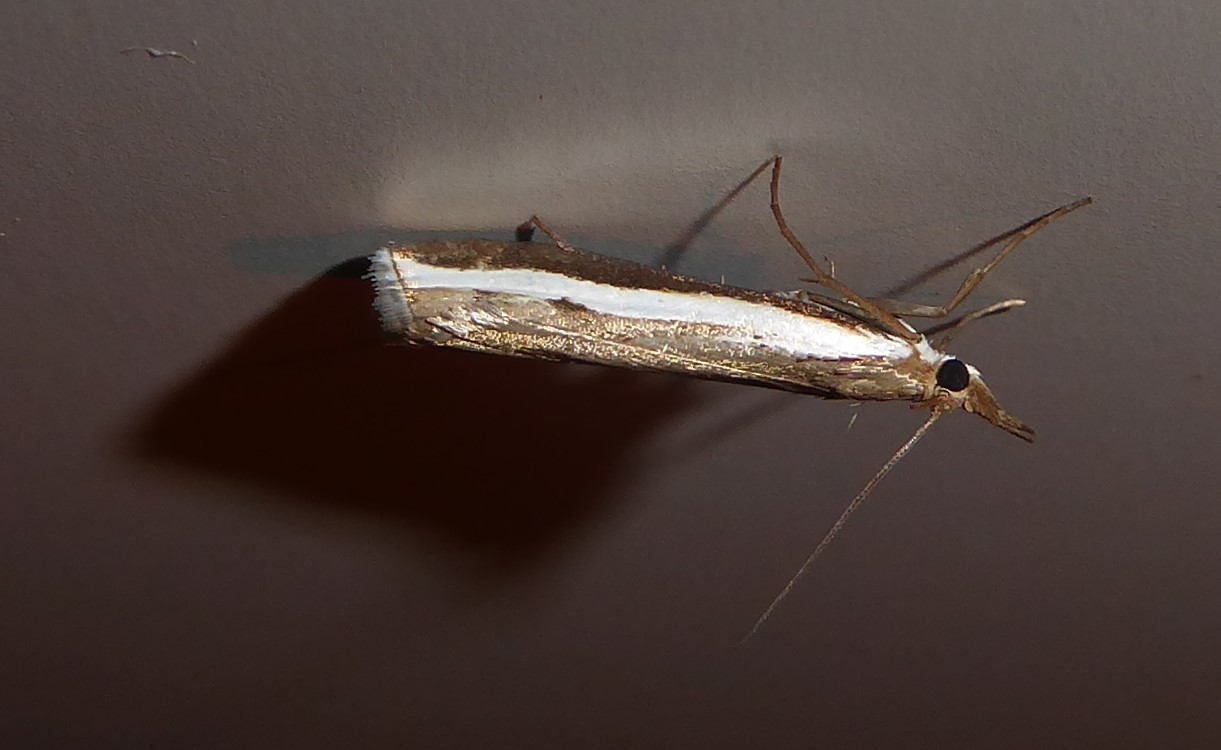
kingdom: Animalia
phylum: Arthropoda
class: Insecta
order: Lepidoptera
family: Crambidae
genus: Orocrambus
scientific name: Orocrambus flexuosellus
